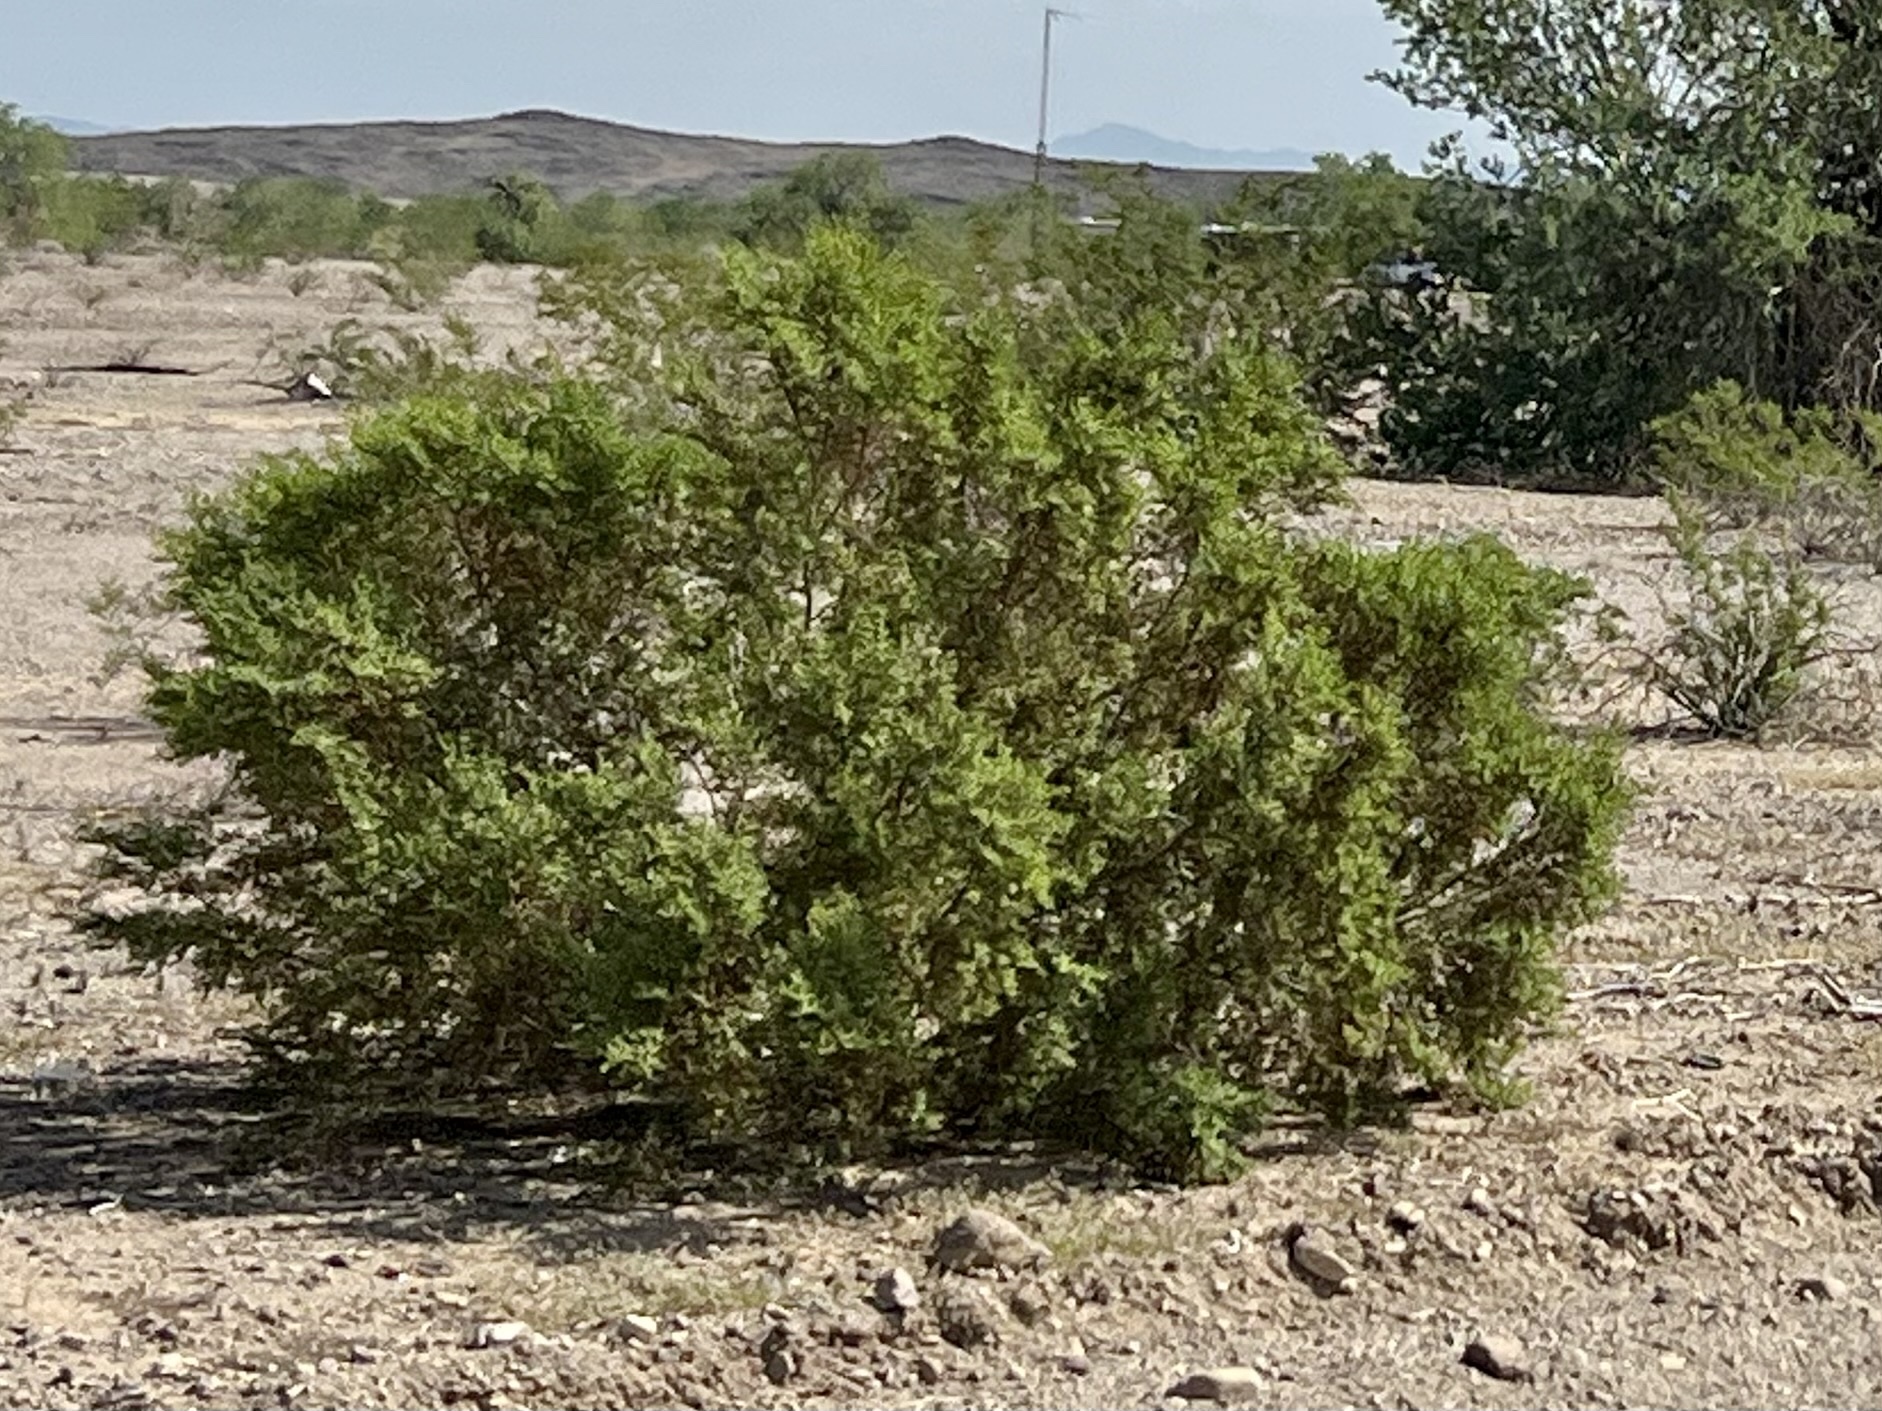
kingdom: Plantae
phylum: Tracheophyta
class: Magnoliopsida
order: Zygophyllales
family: Zygophyllaceae
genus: Larrea
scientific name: Larrea tridentata
